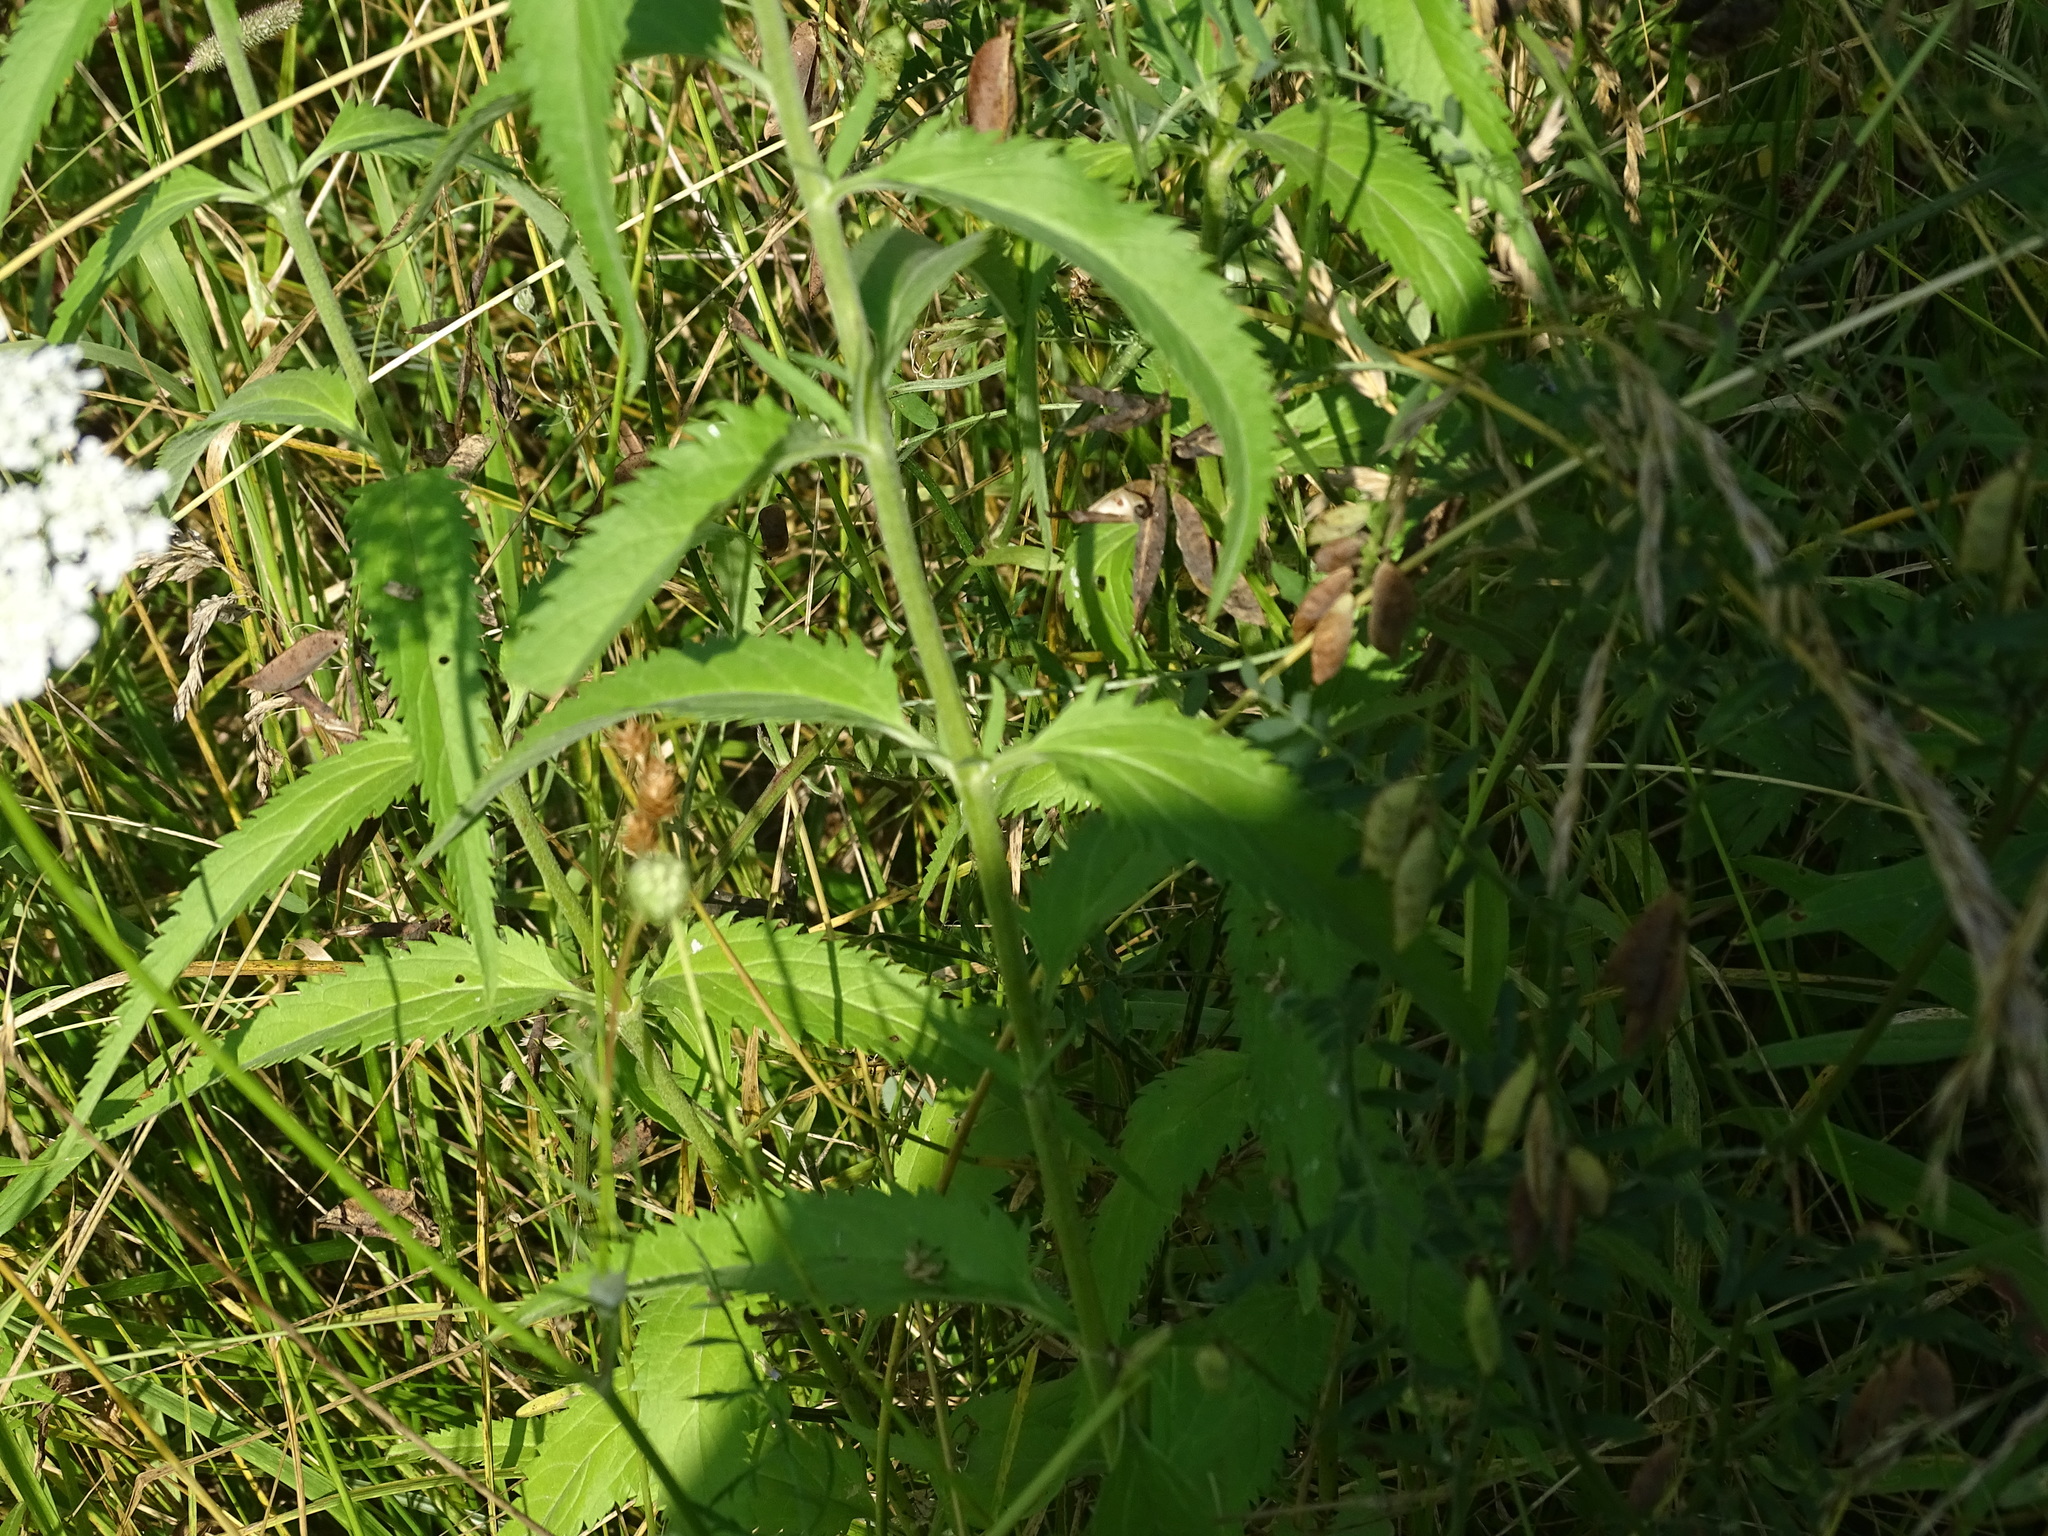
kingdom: Plantae
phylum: Tracheophyta
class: Magnoliopsida
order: Lamiales
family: Plantaginaceae
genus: Veronica
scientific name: Veronica longifolia
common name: Garden speedwell
